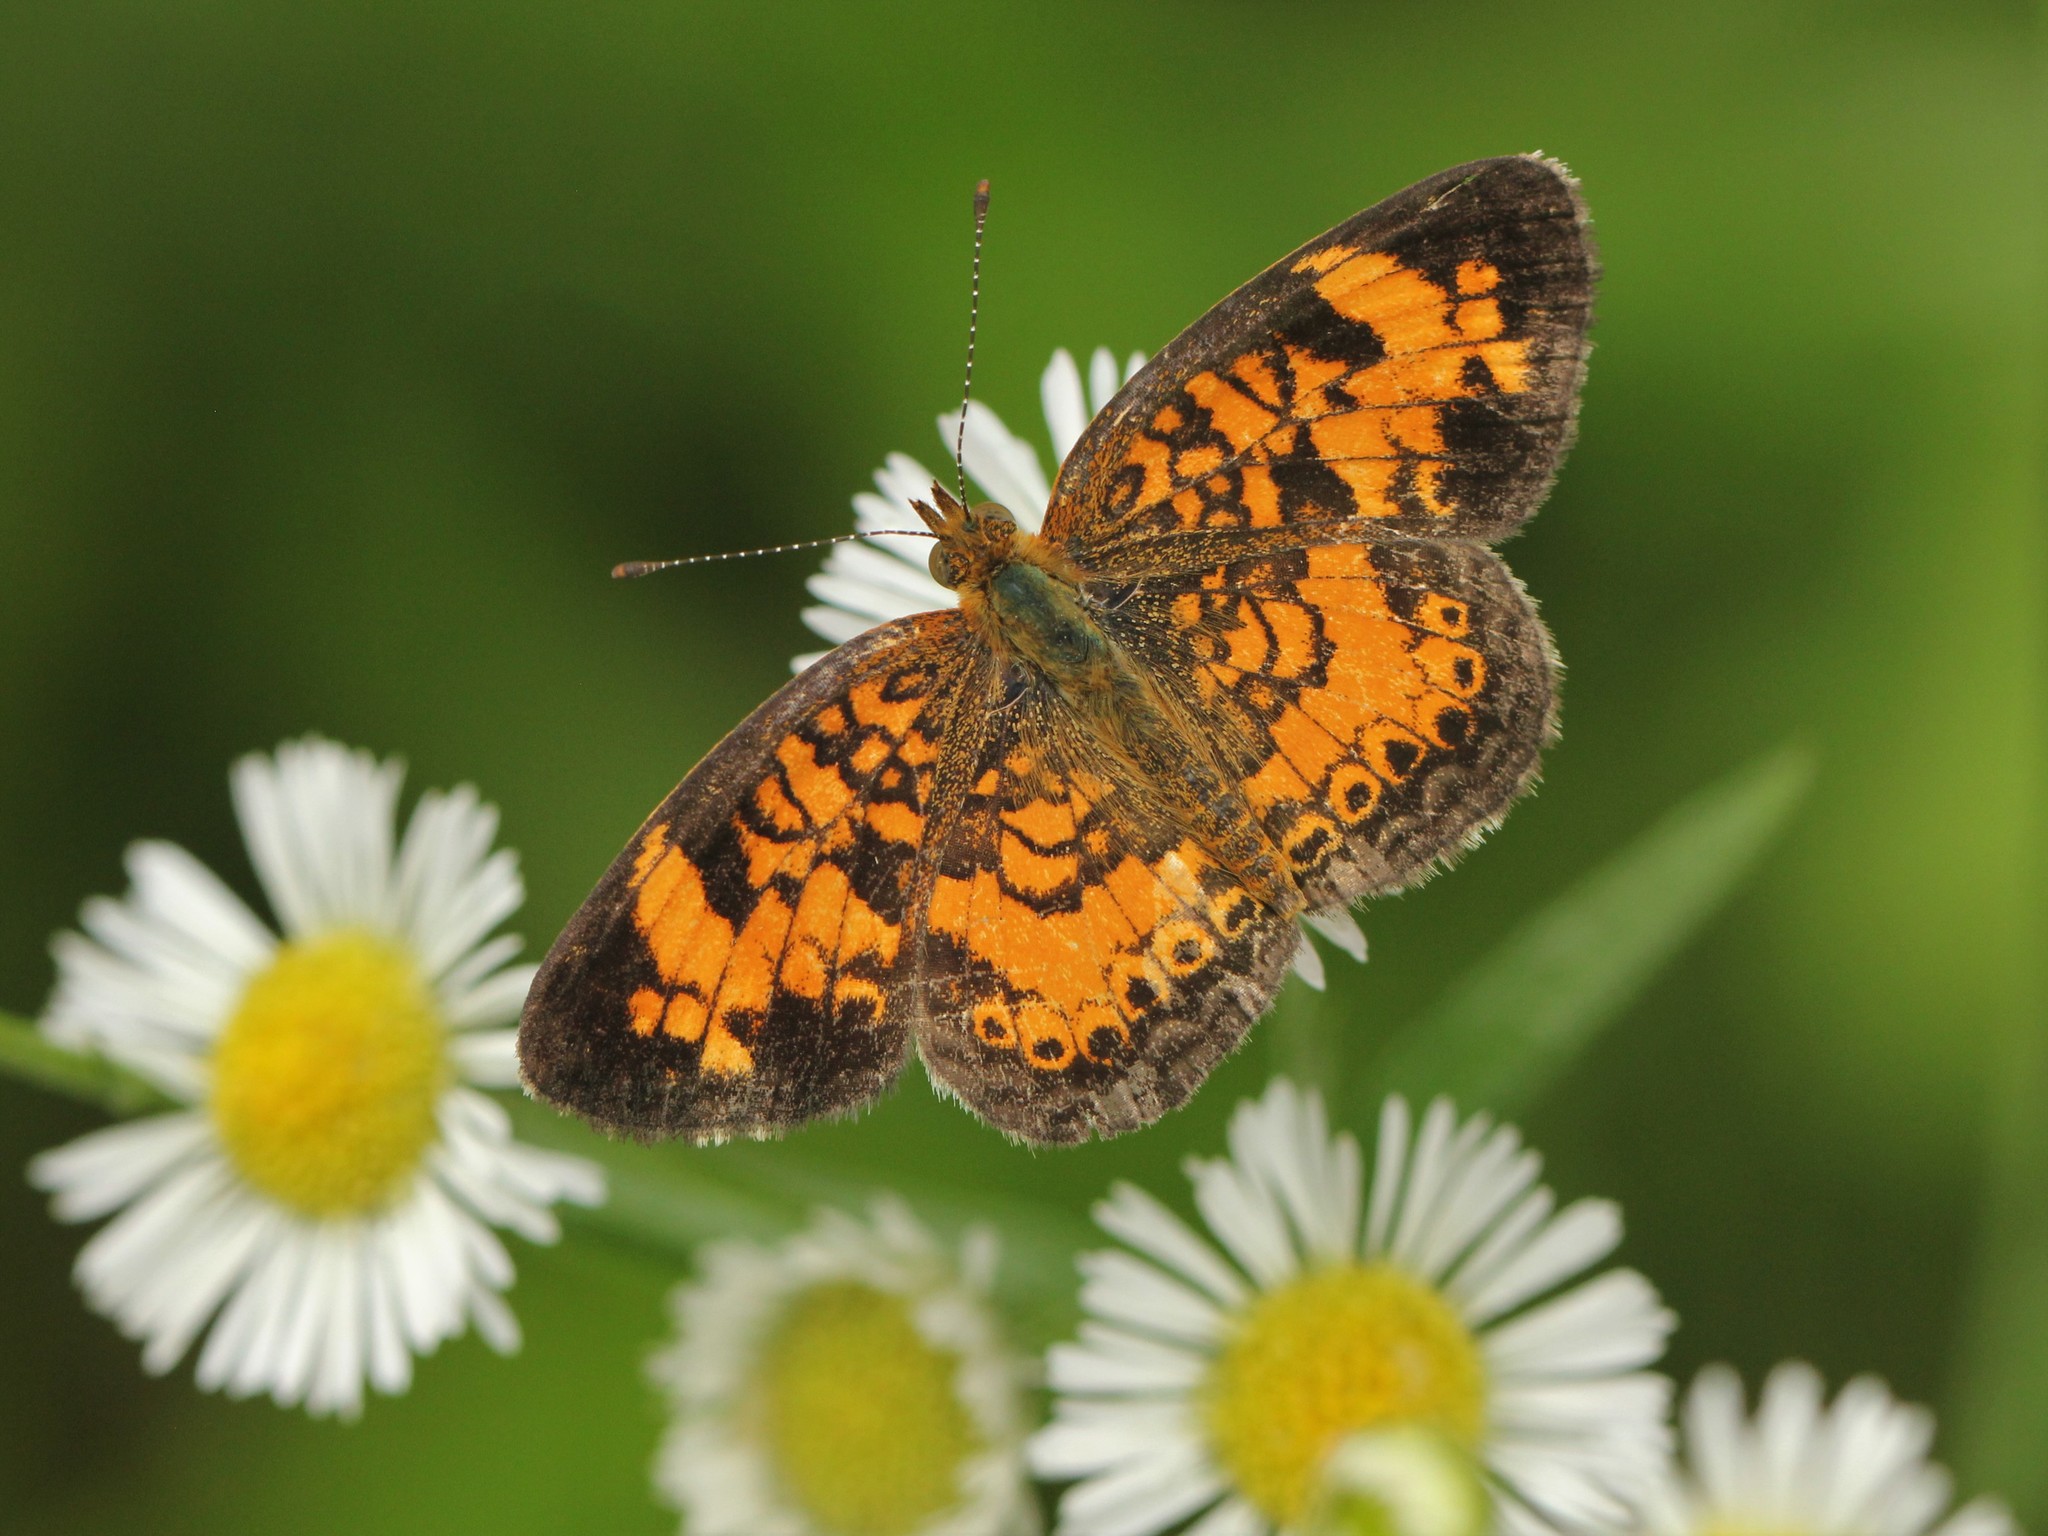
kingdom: Animalia
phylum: Arthropoda
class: Insecta
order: Lepidoptera
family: Nymphalidae
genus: Phyciodes
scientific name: Phyciodes tharos
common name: Pearl crescent
